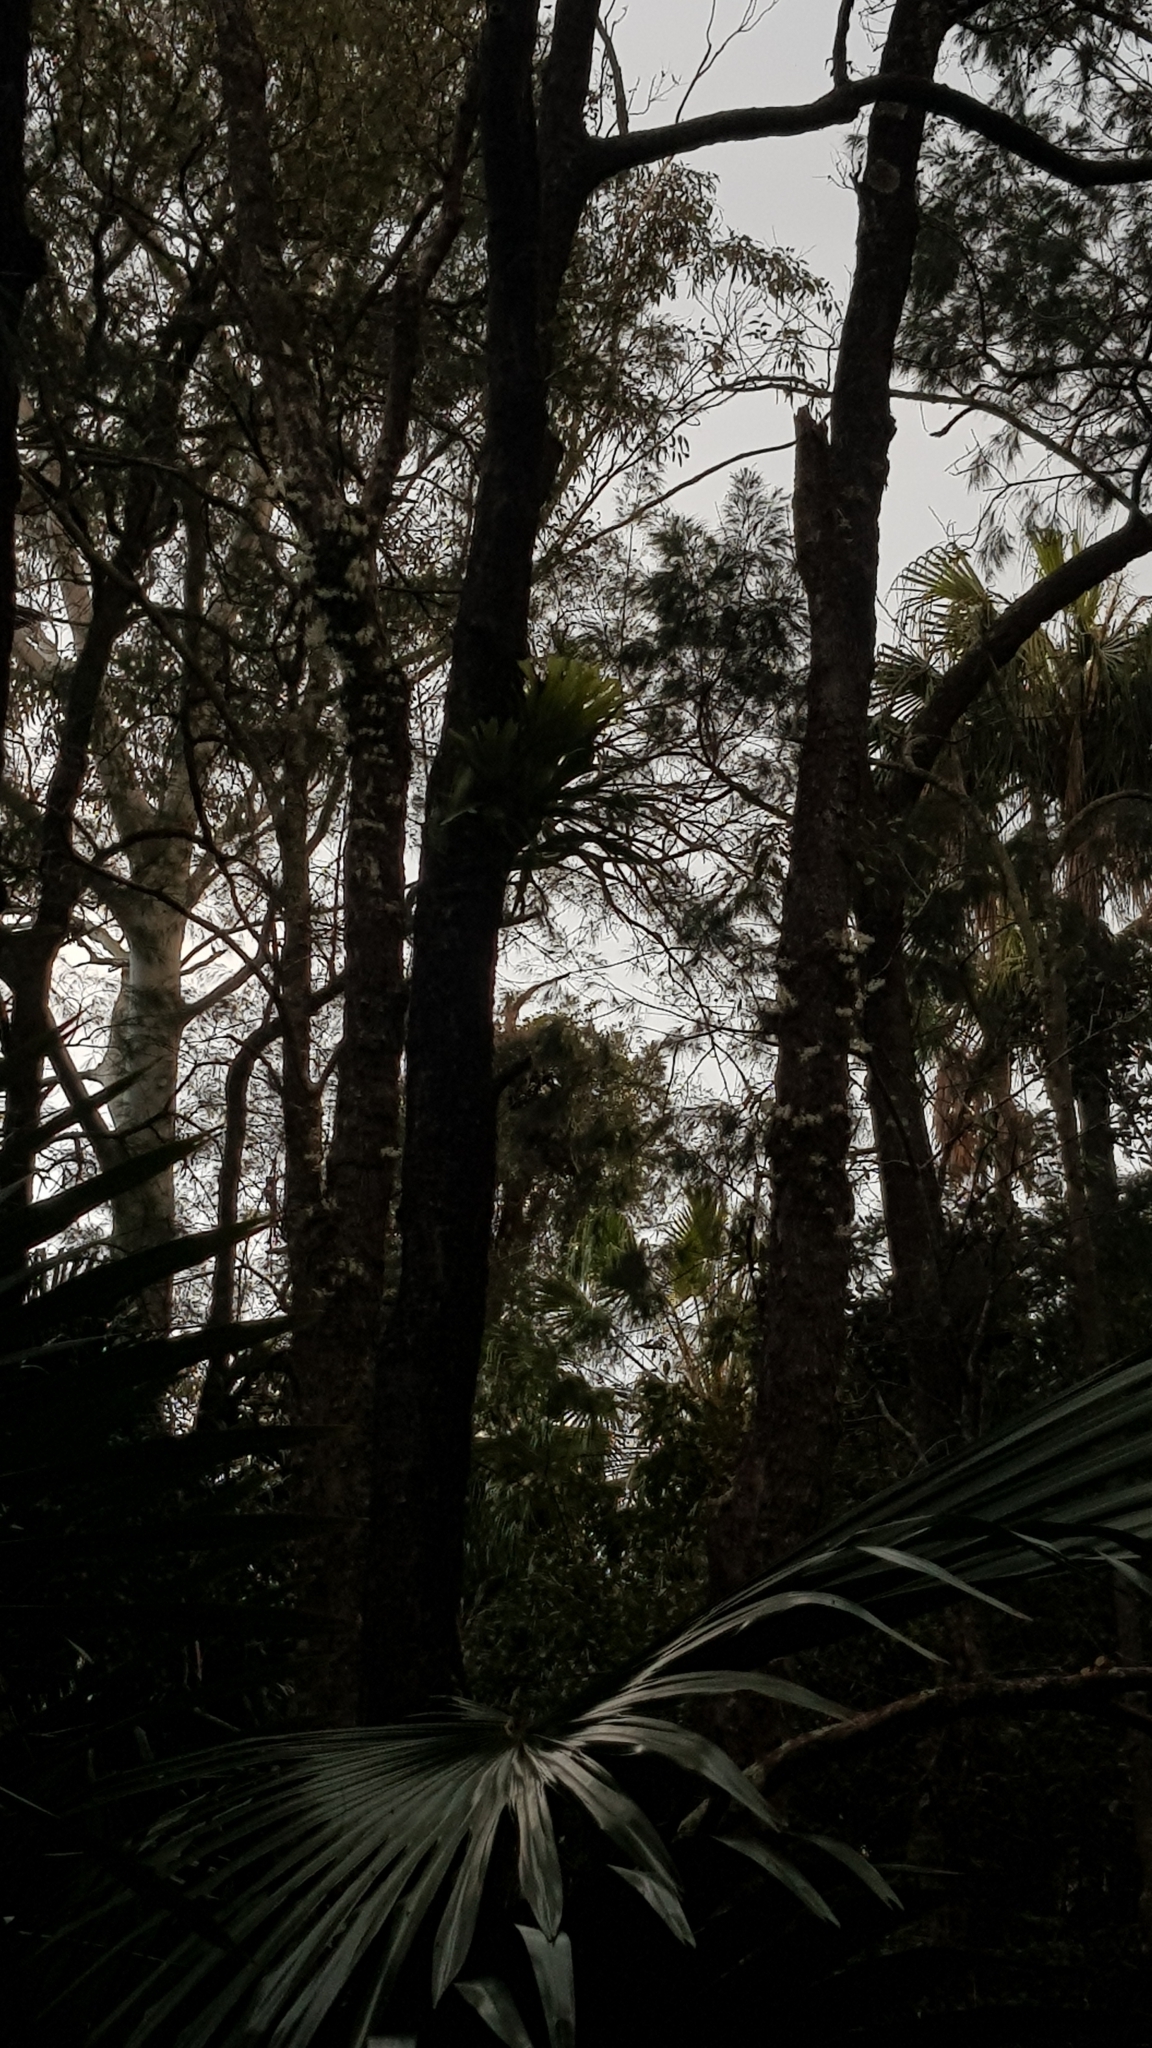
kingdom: Plantae
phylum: Tracheophyta
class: Liliopsida
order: Asparagales
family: Orchidaceae
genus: Dendrobium
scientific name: Dendrobium linguiforme
